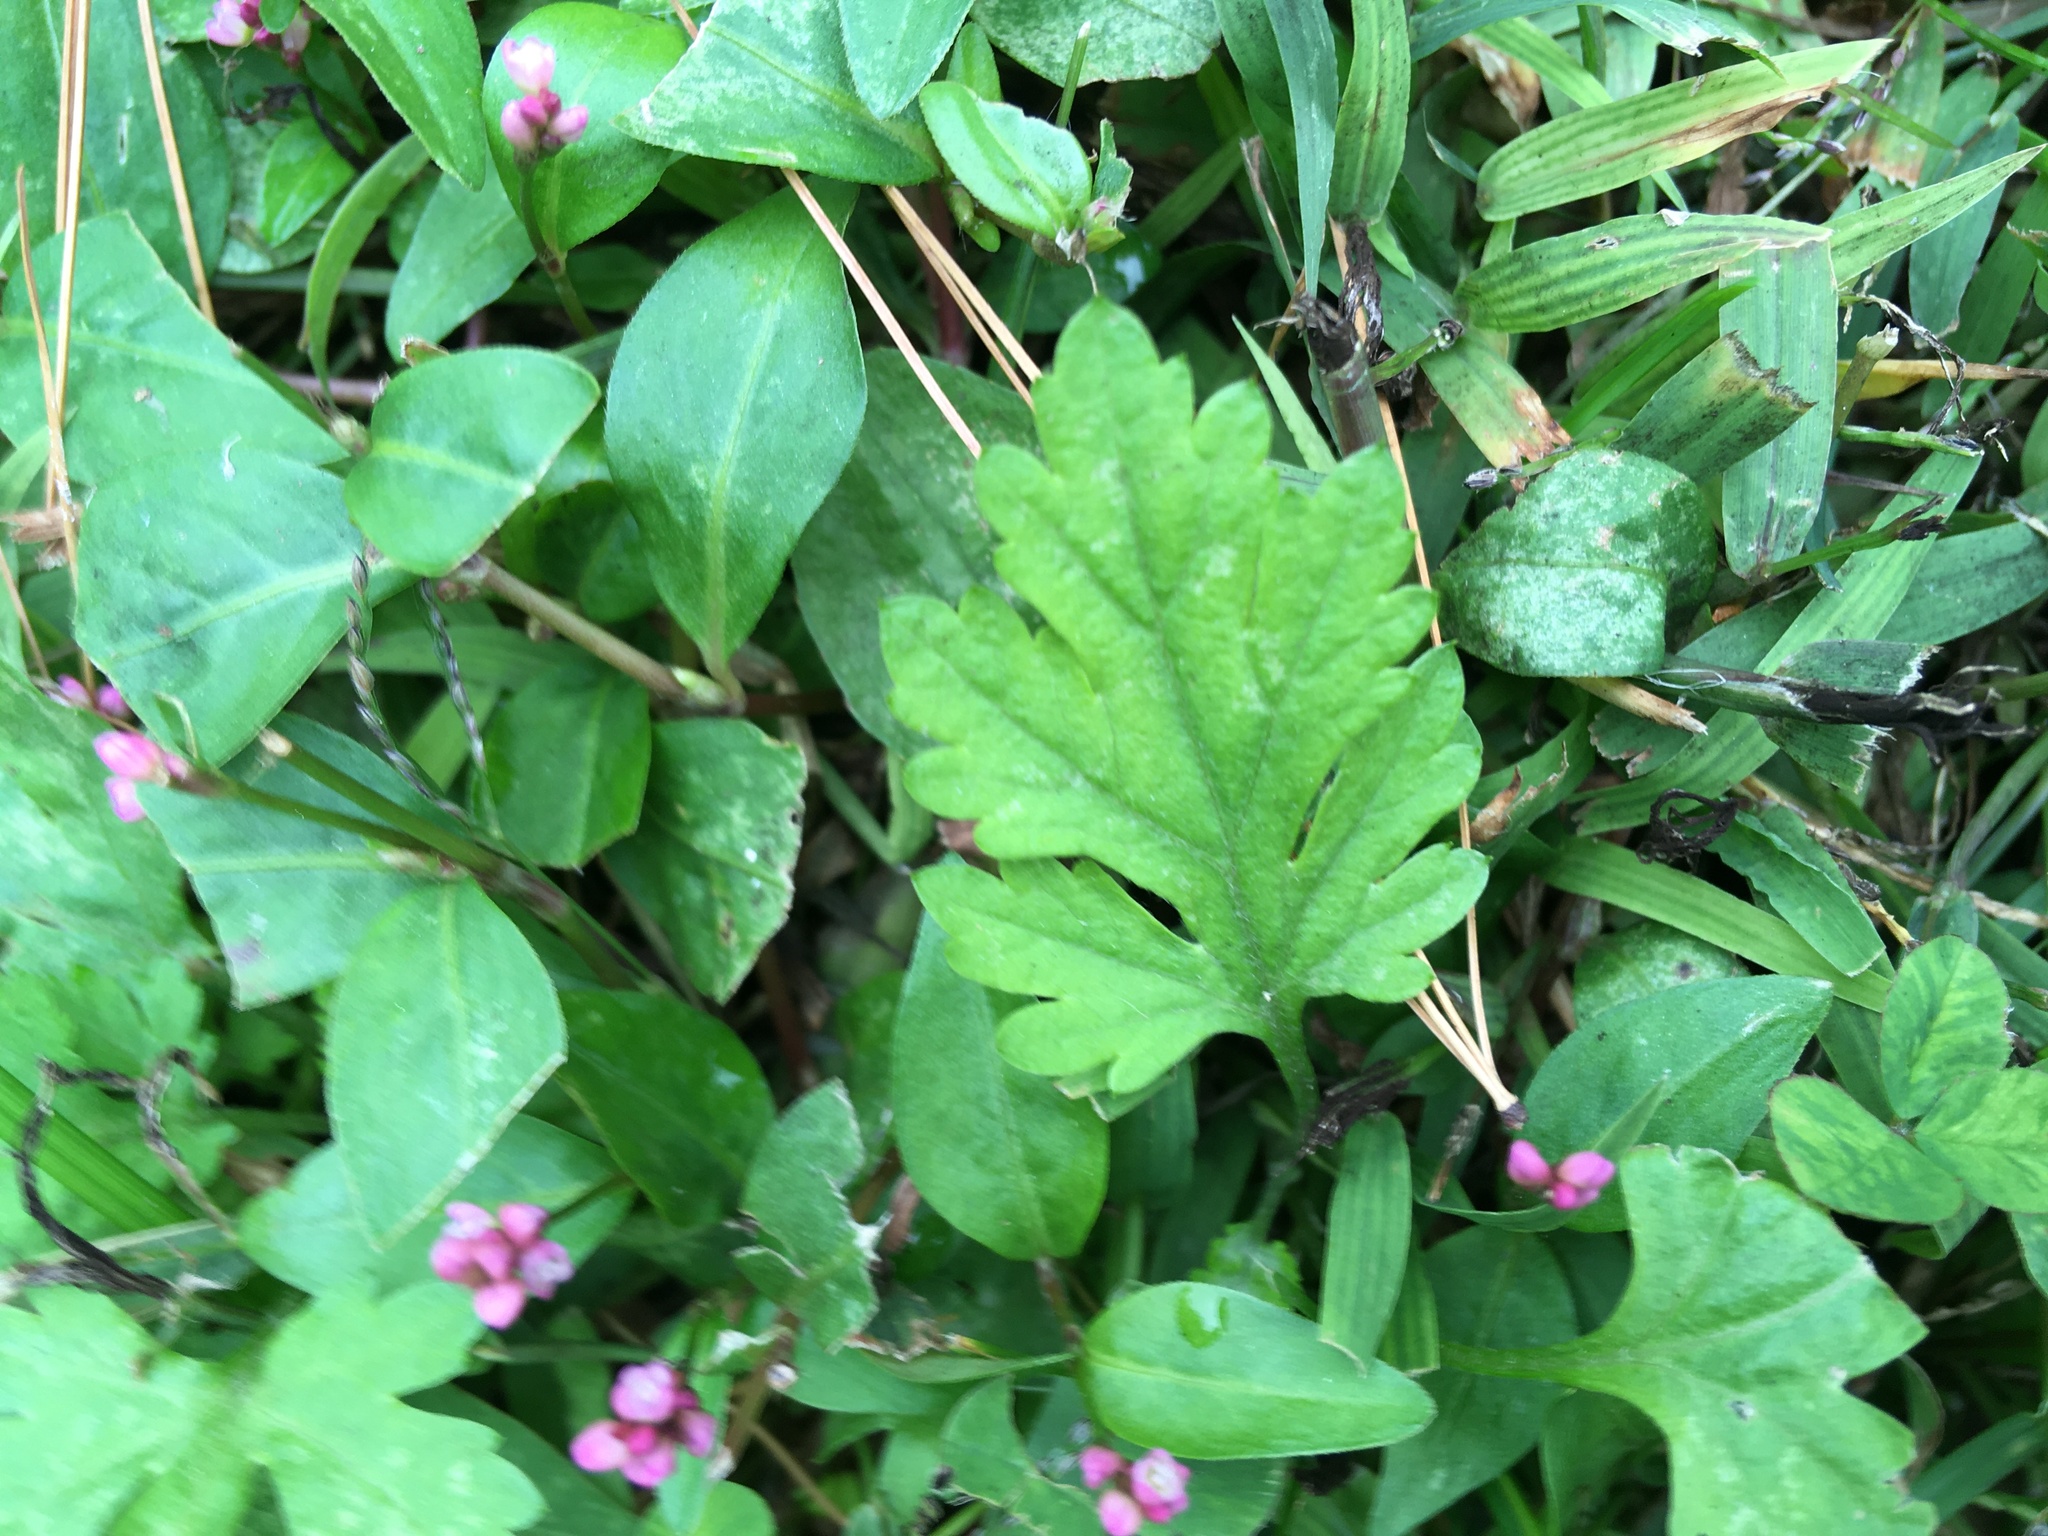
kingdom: Plantae
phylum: Tracheophyta
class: Magnoliopsida
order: Asterales
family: Asteraceae
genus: Artemisia
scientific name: Artemisia vulgaris
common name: Mugwort
